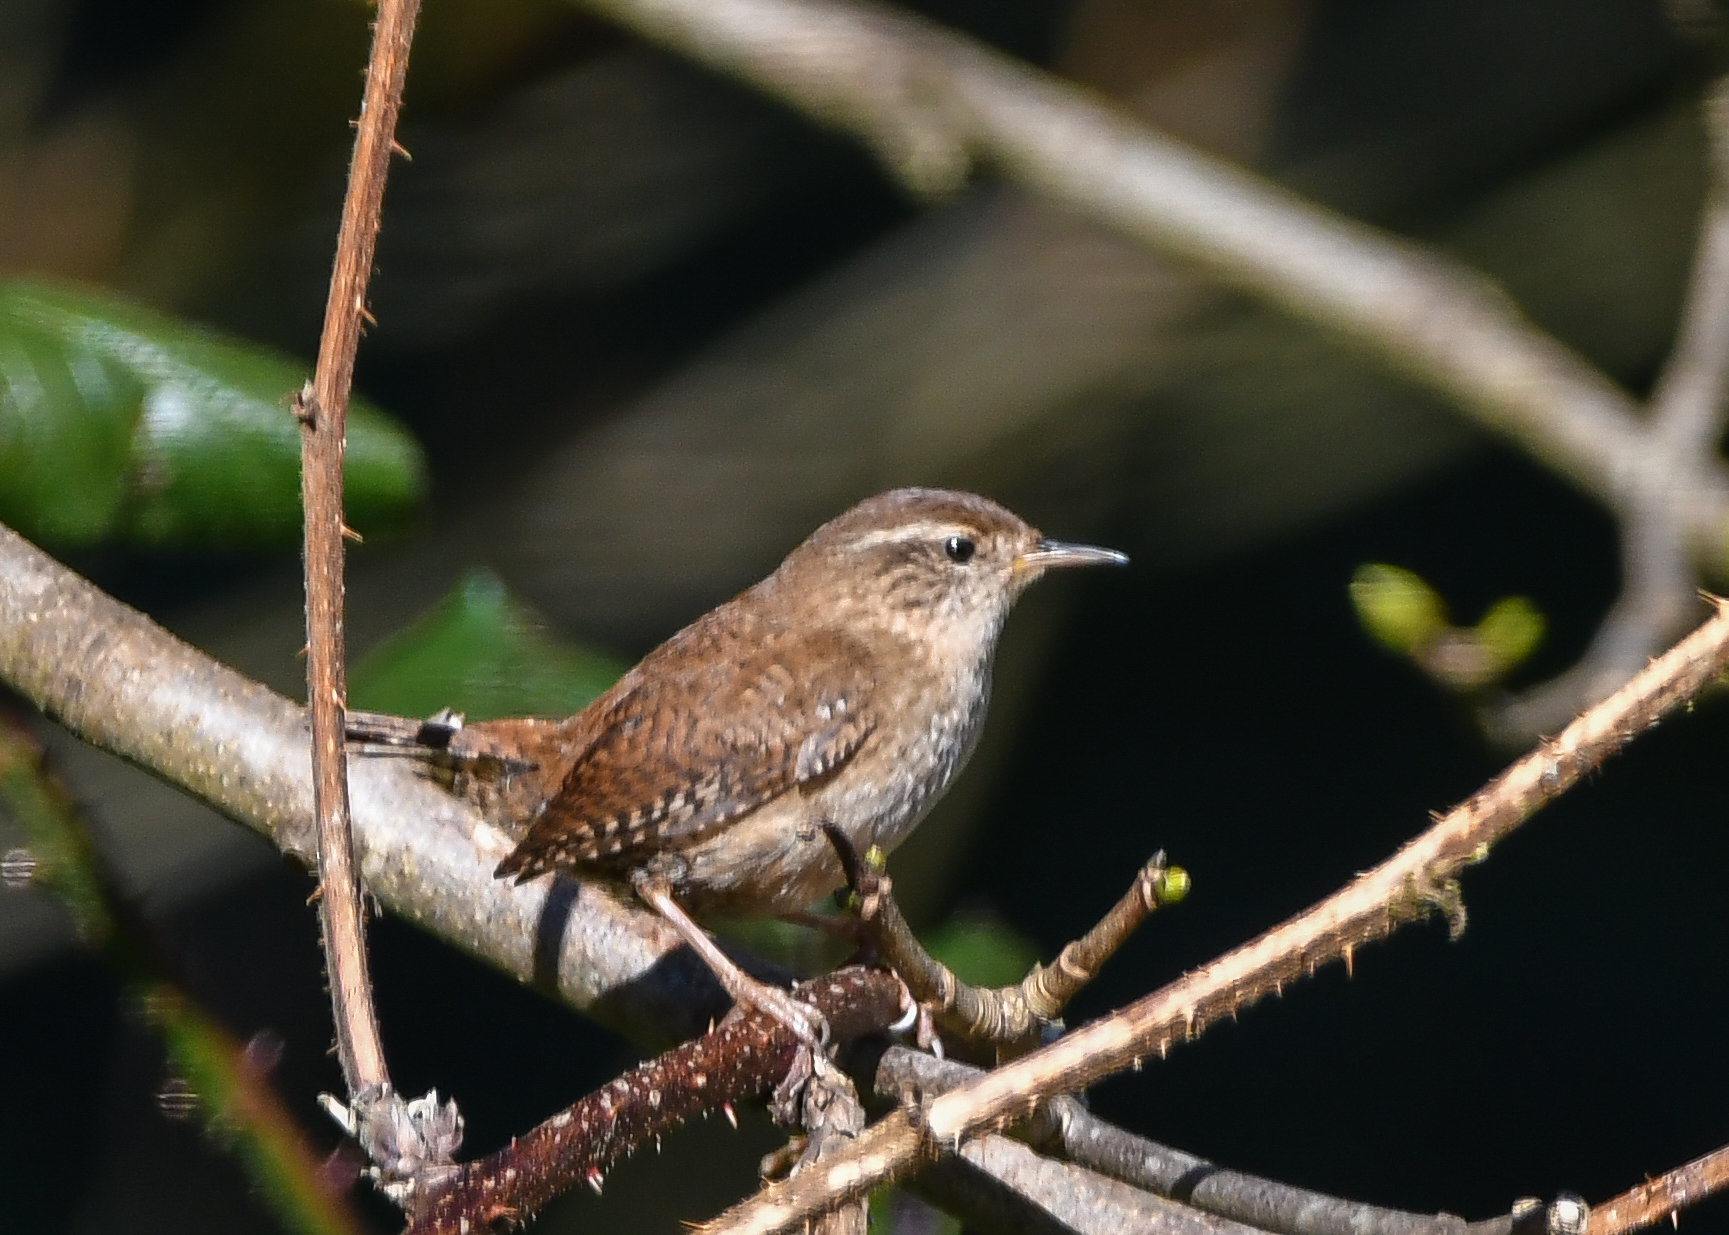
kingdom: Animalia
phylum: Chordata
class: Aves
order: Passeriformes
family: Troglodytidae
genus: Troglodytes
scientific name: Troglodytes troglodytes
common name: Eurasian wren
